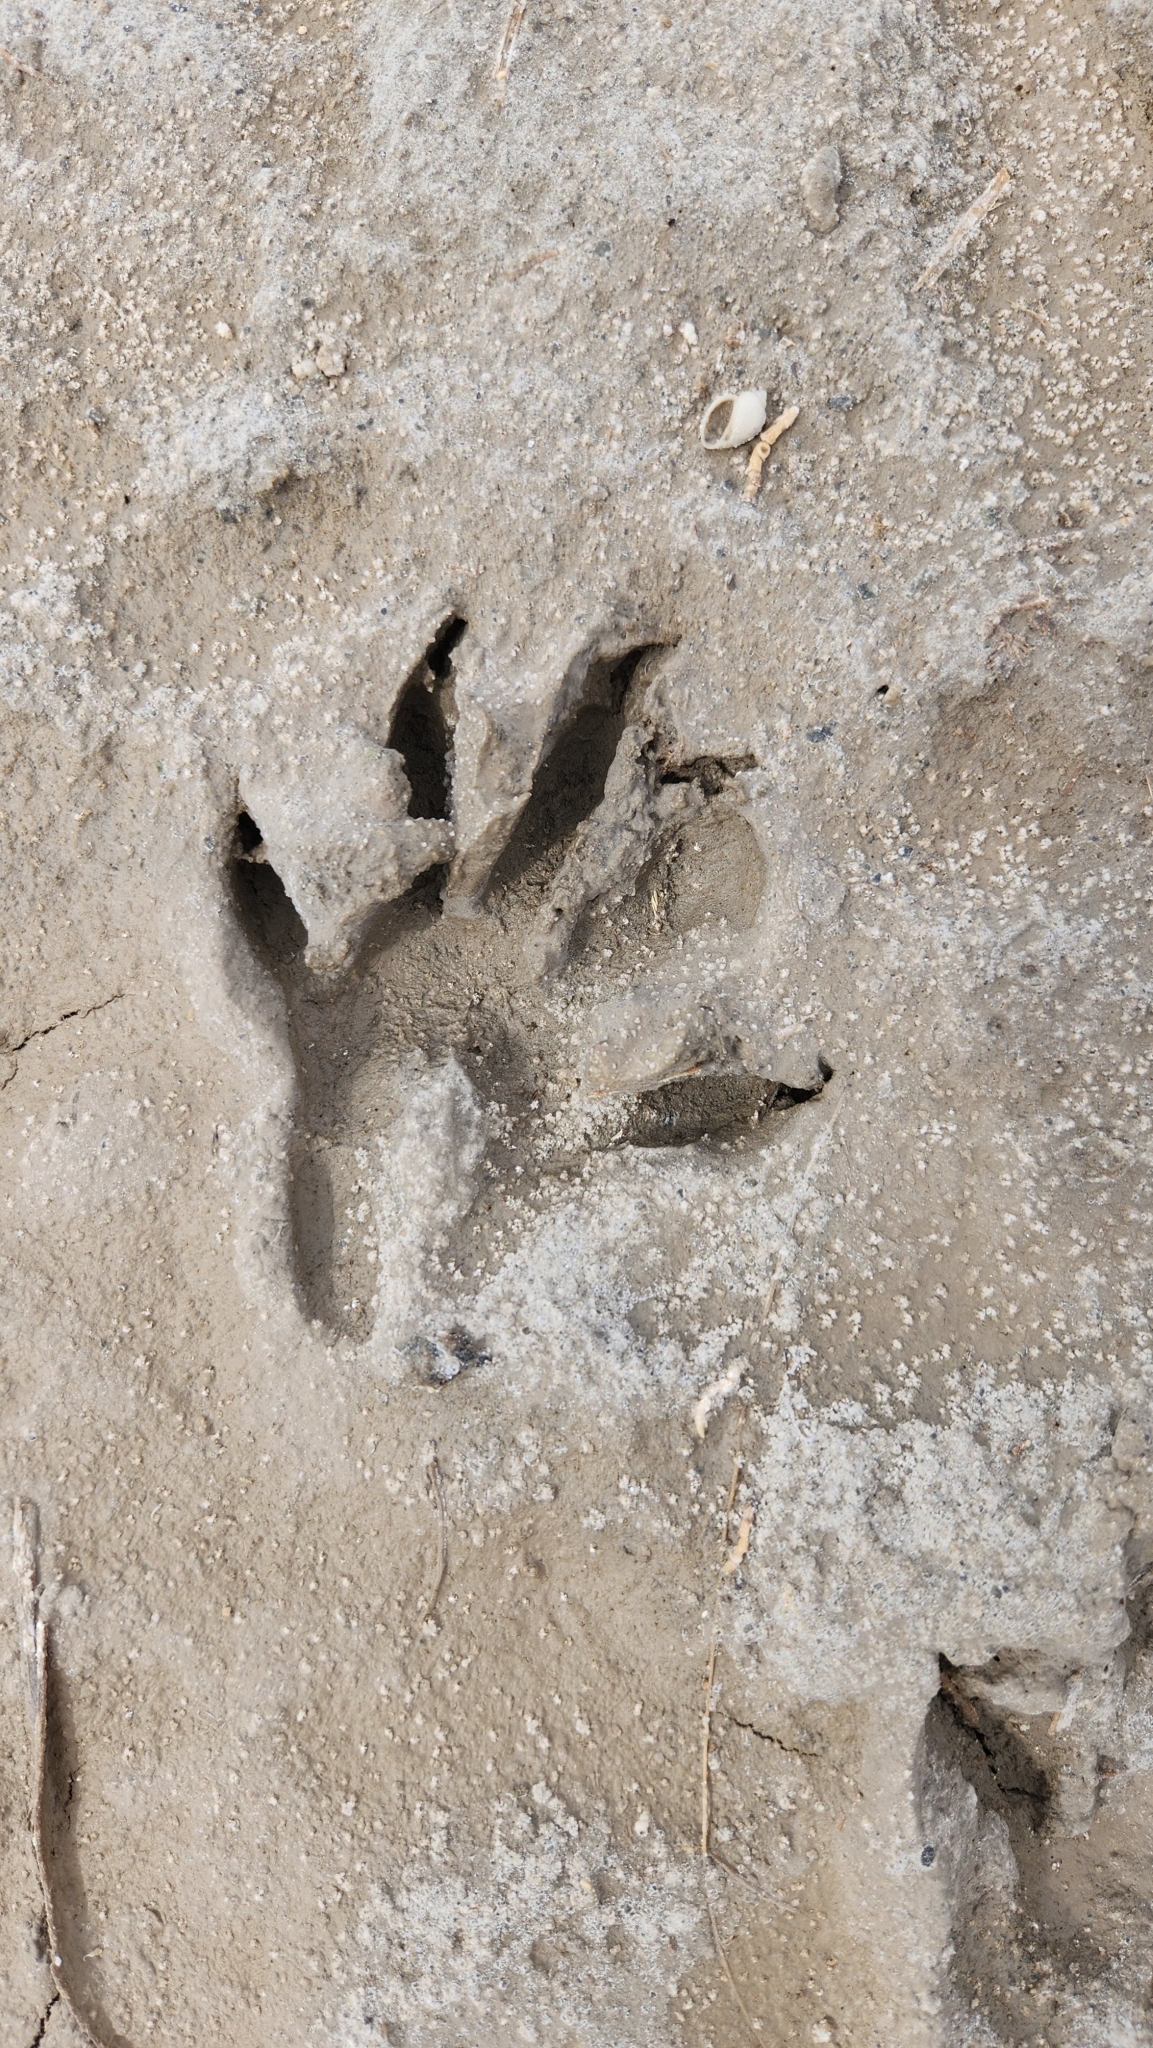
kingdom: Animalia
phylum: Chordata
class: Mammalia
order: Carnivora
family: Procyonidae
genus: Procyon
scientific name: Procyon lotor
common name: Raccoon
